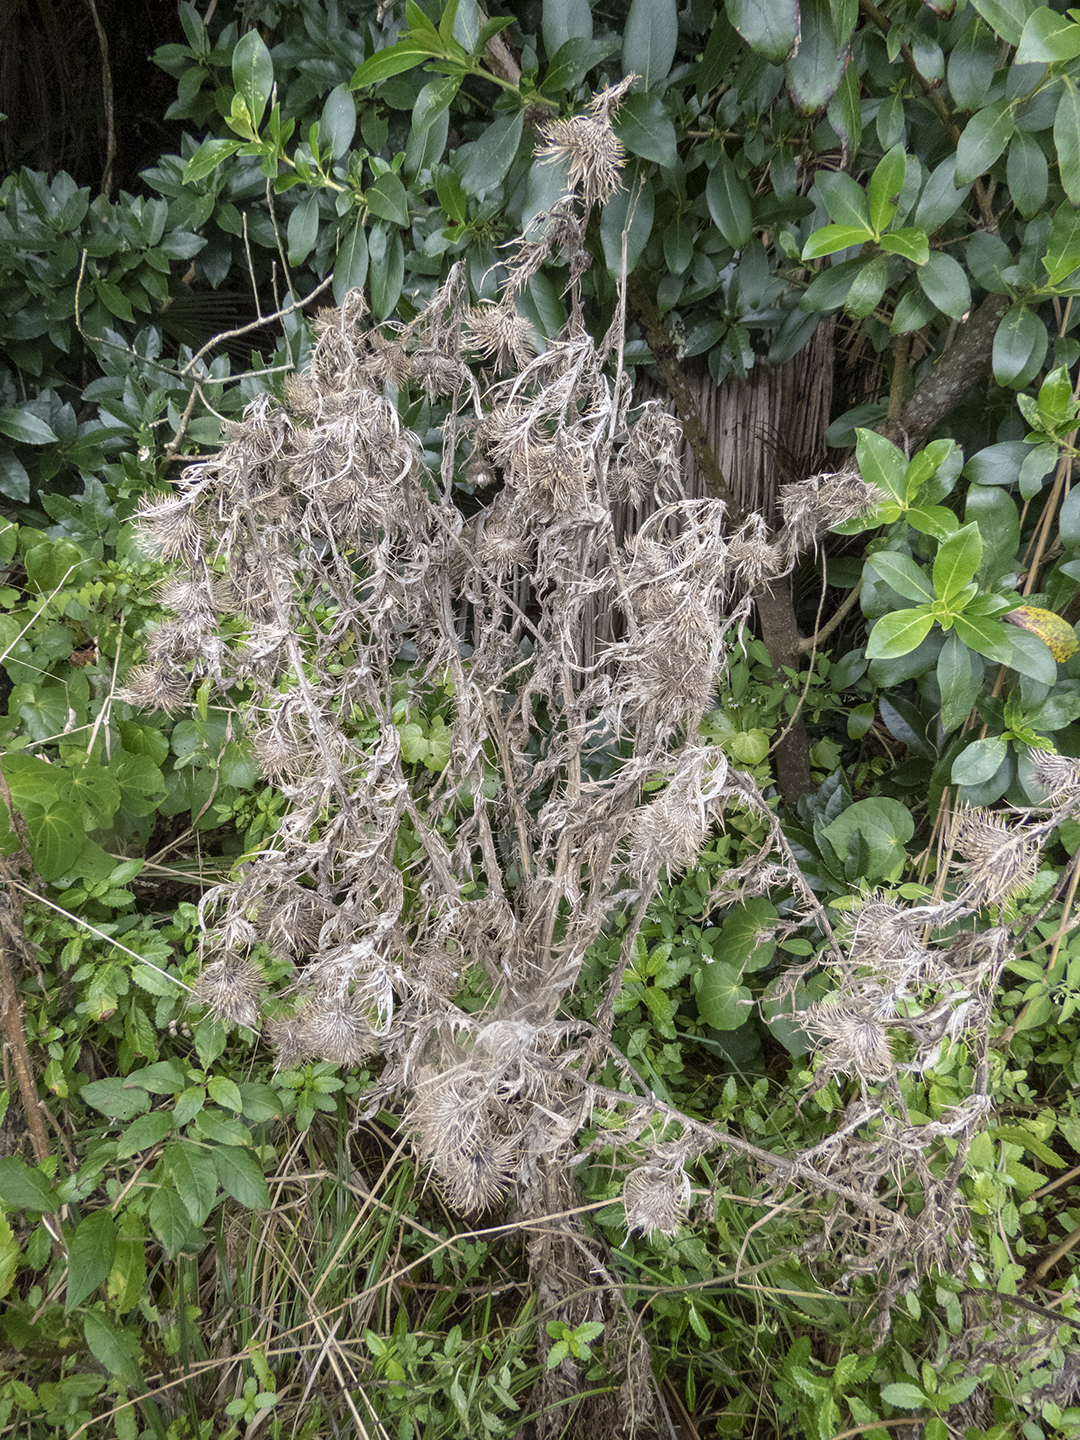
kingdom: Plantae
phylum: Tracheophyta
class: Magnoliopsida
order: Asterales
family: Asteraceae
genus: Cirsium
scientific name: Cirsium vulgare
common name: Bull thistle
